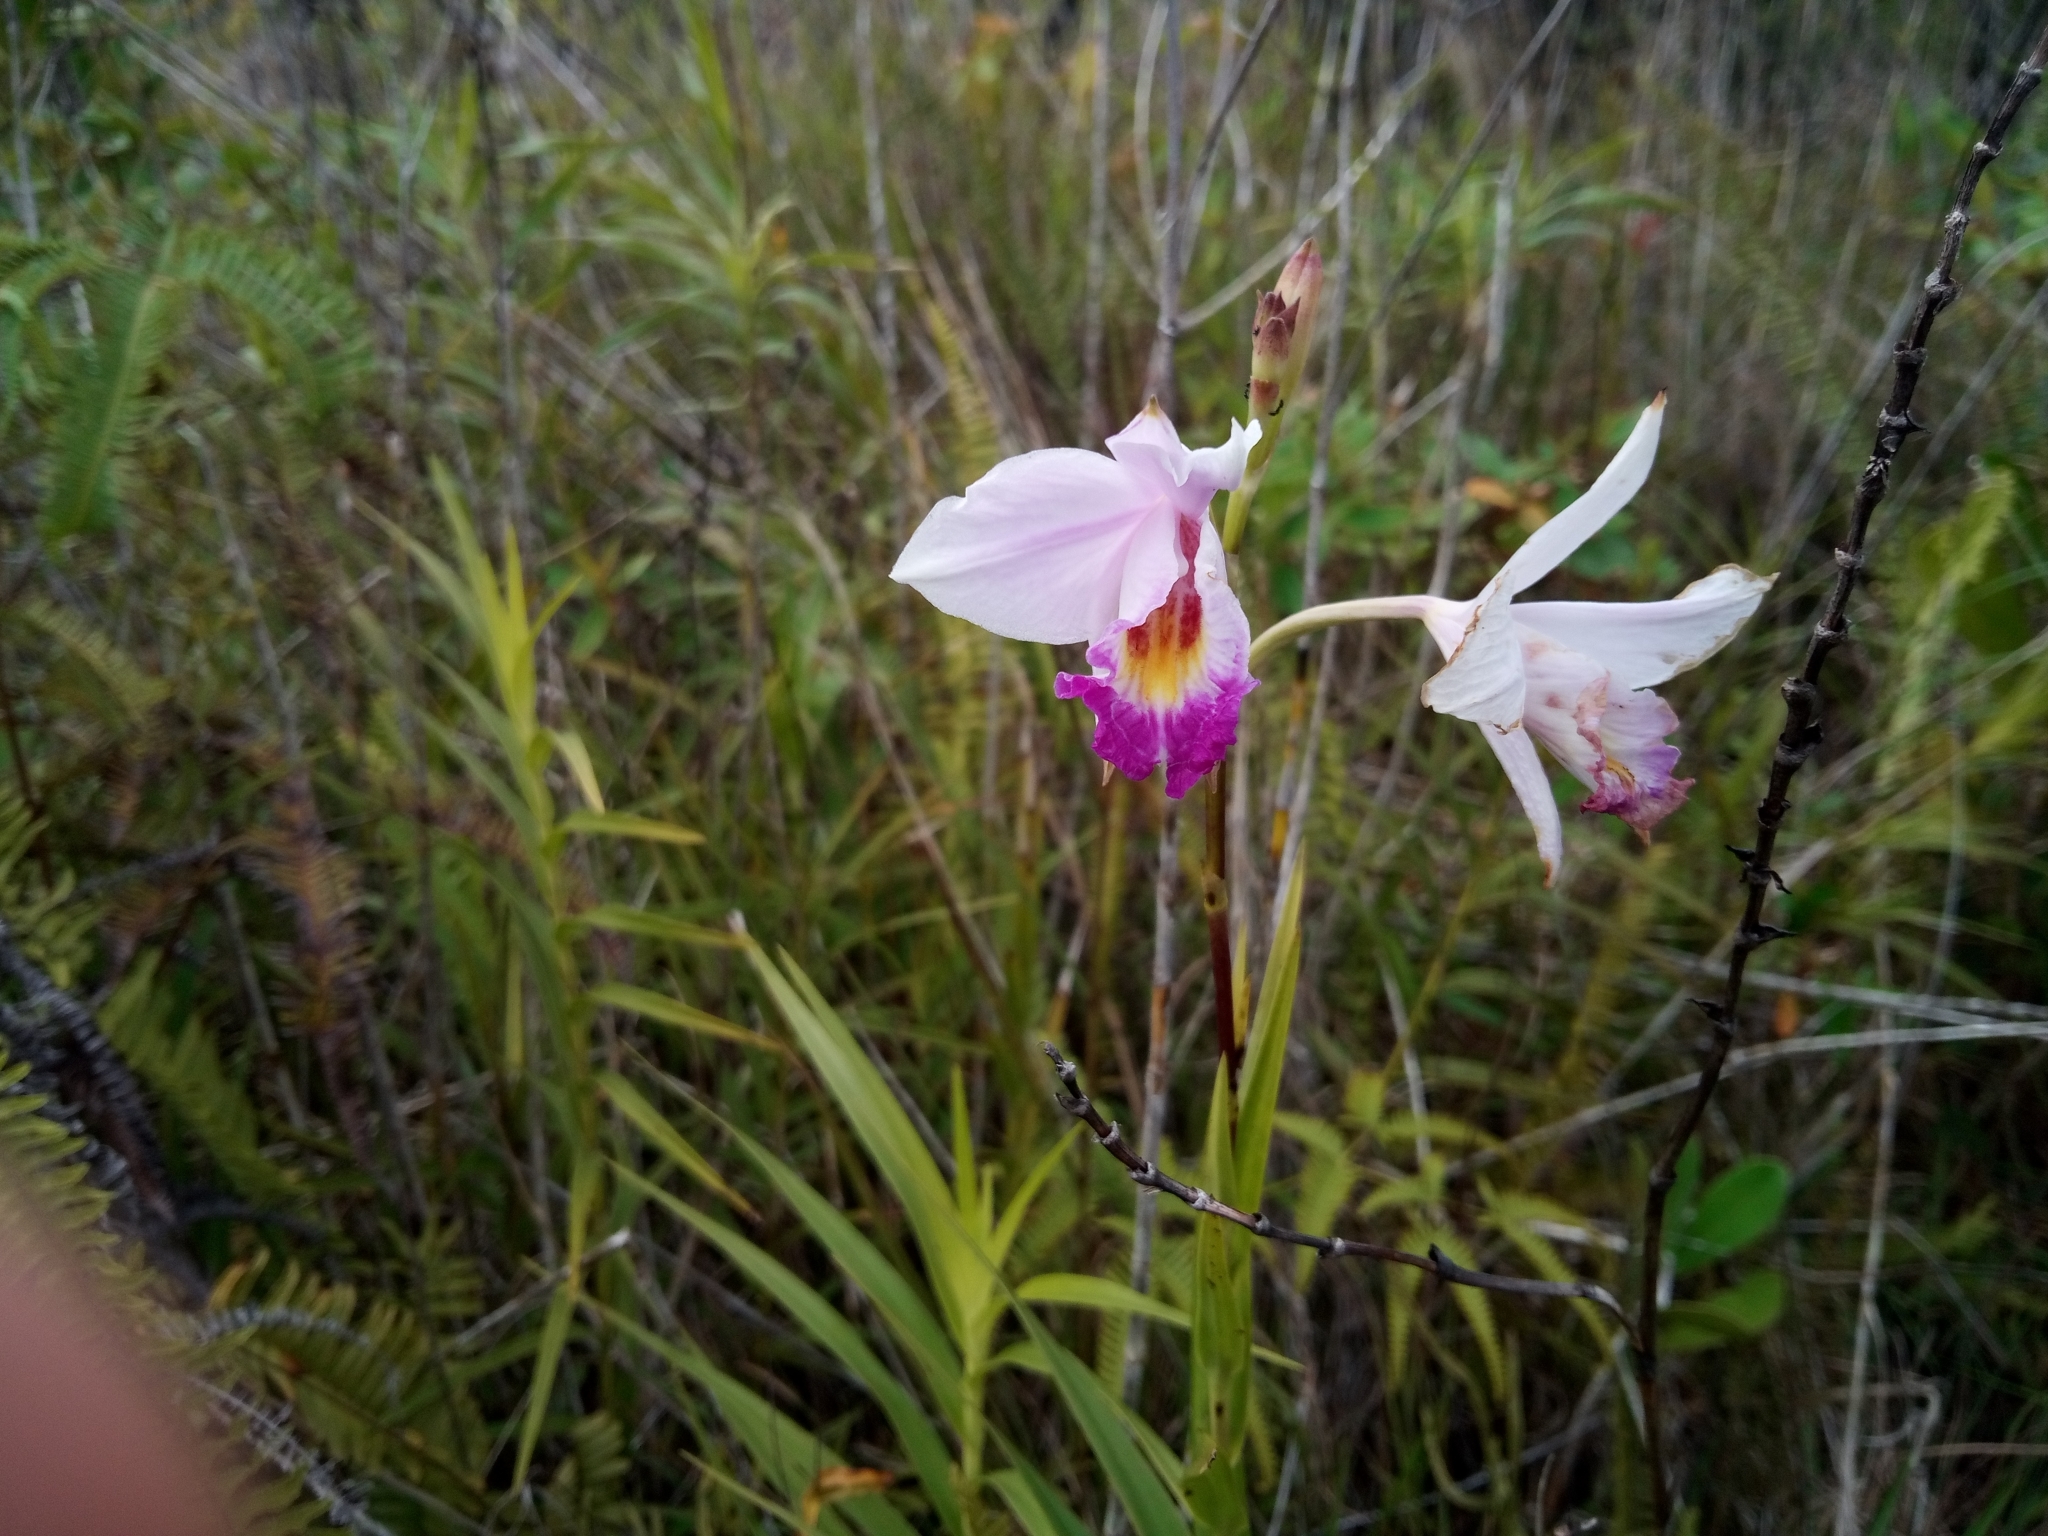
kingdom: Plantae
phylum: Tracheophyta
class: Liliopsida
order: Asparagales
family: Orchidaceae
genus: Arundina
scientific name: Arundina graminifolia
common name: Bamboo orchid
